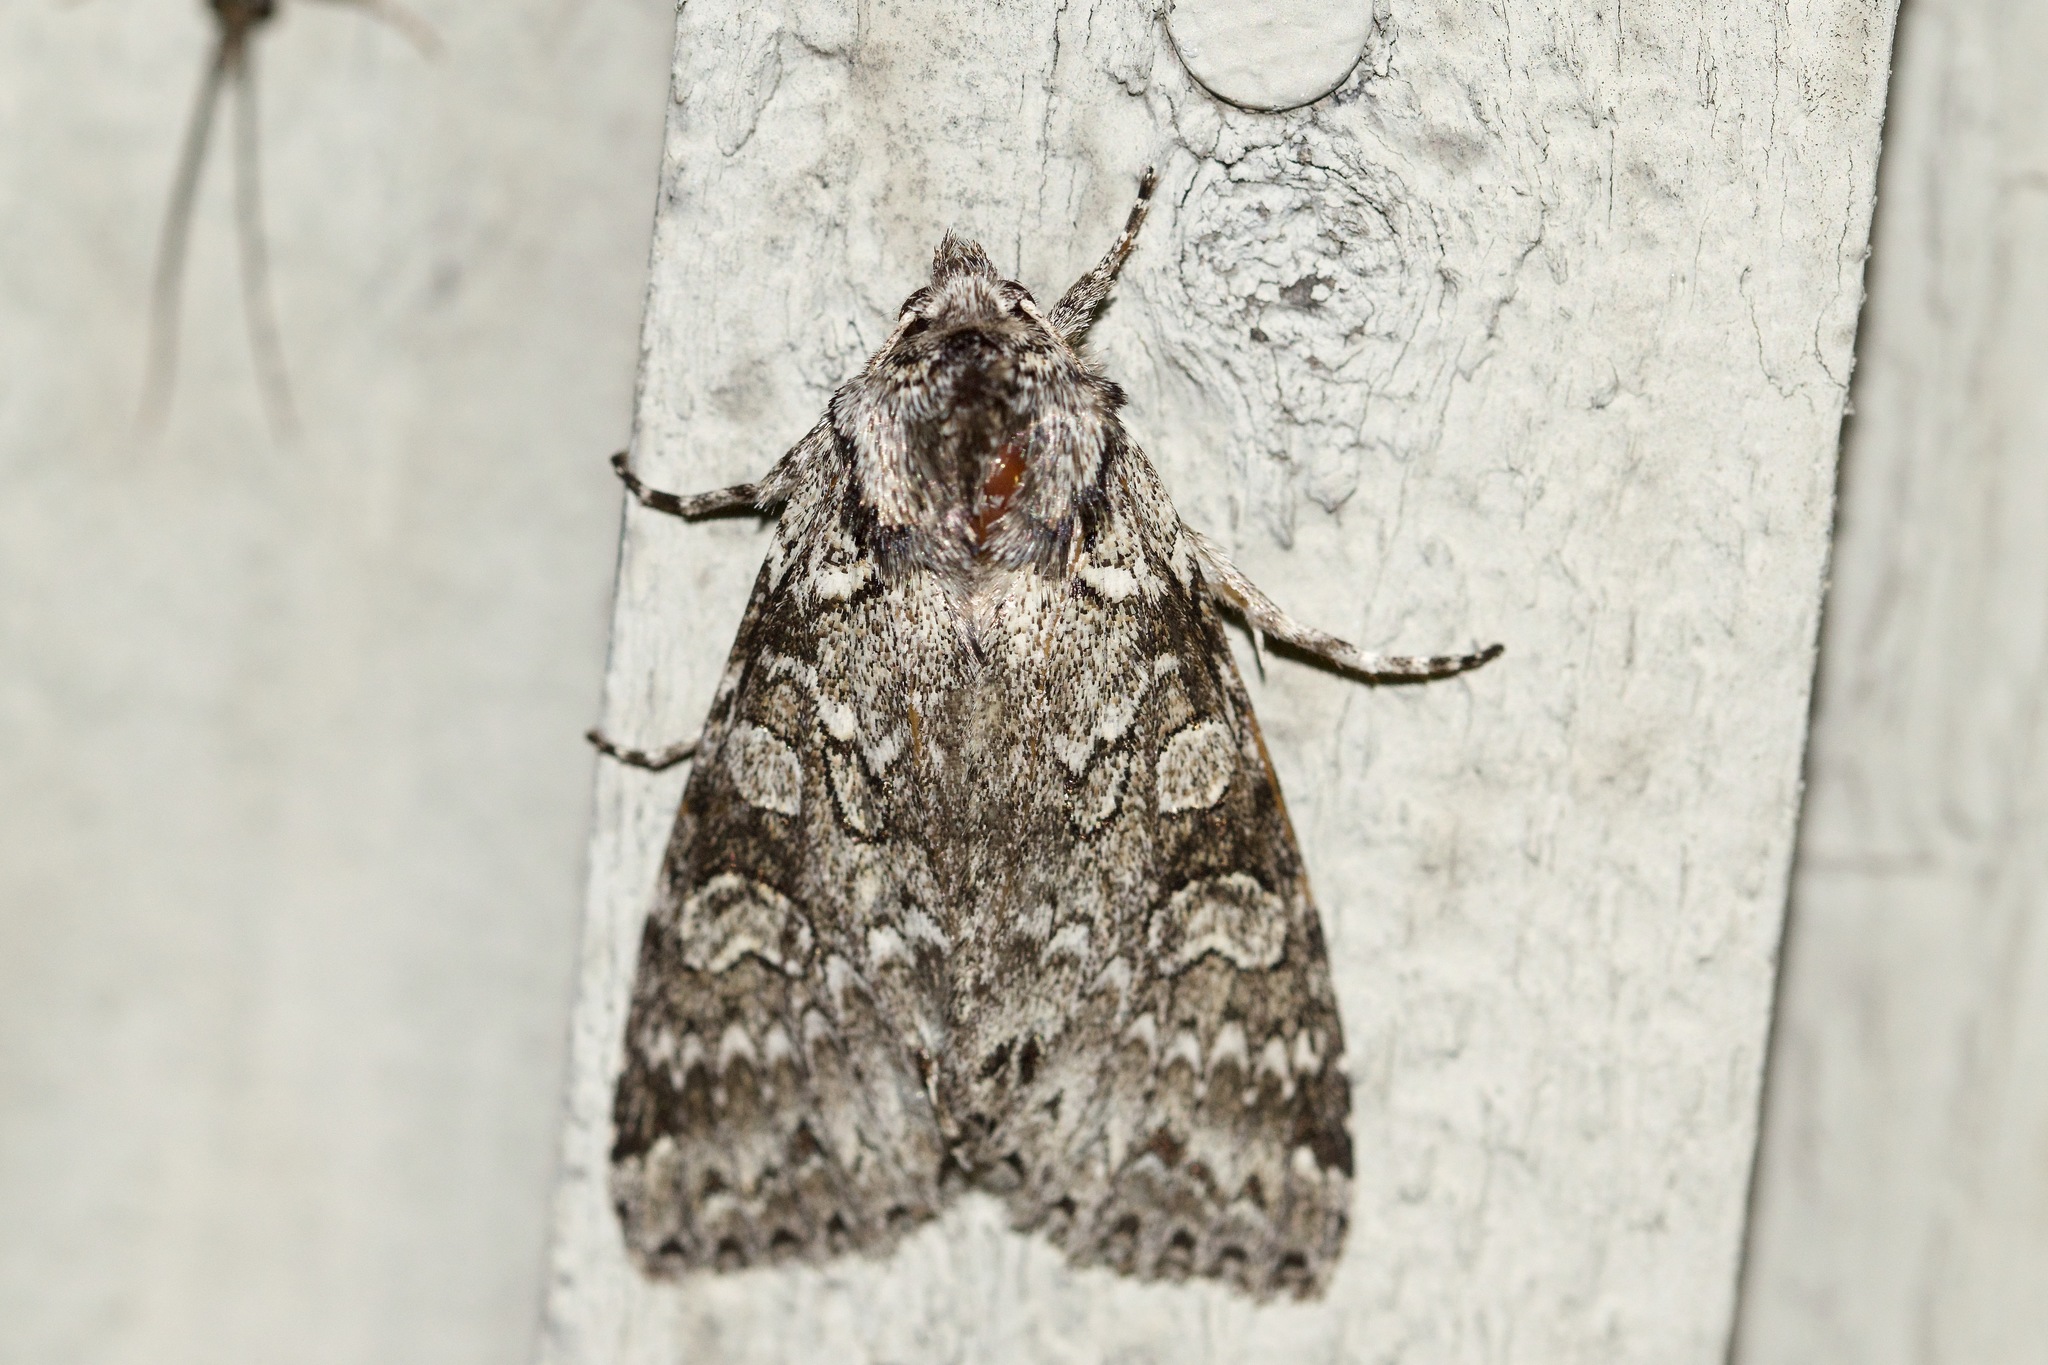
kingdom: Animalia
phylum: Arthropoda
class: Insecta
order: Lepidoptera
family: Noctuidae
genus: Polia
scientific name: Polia nimbosa
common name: Stormy arches
